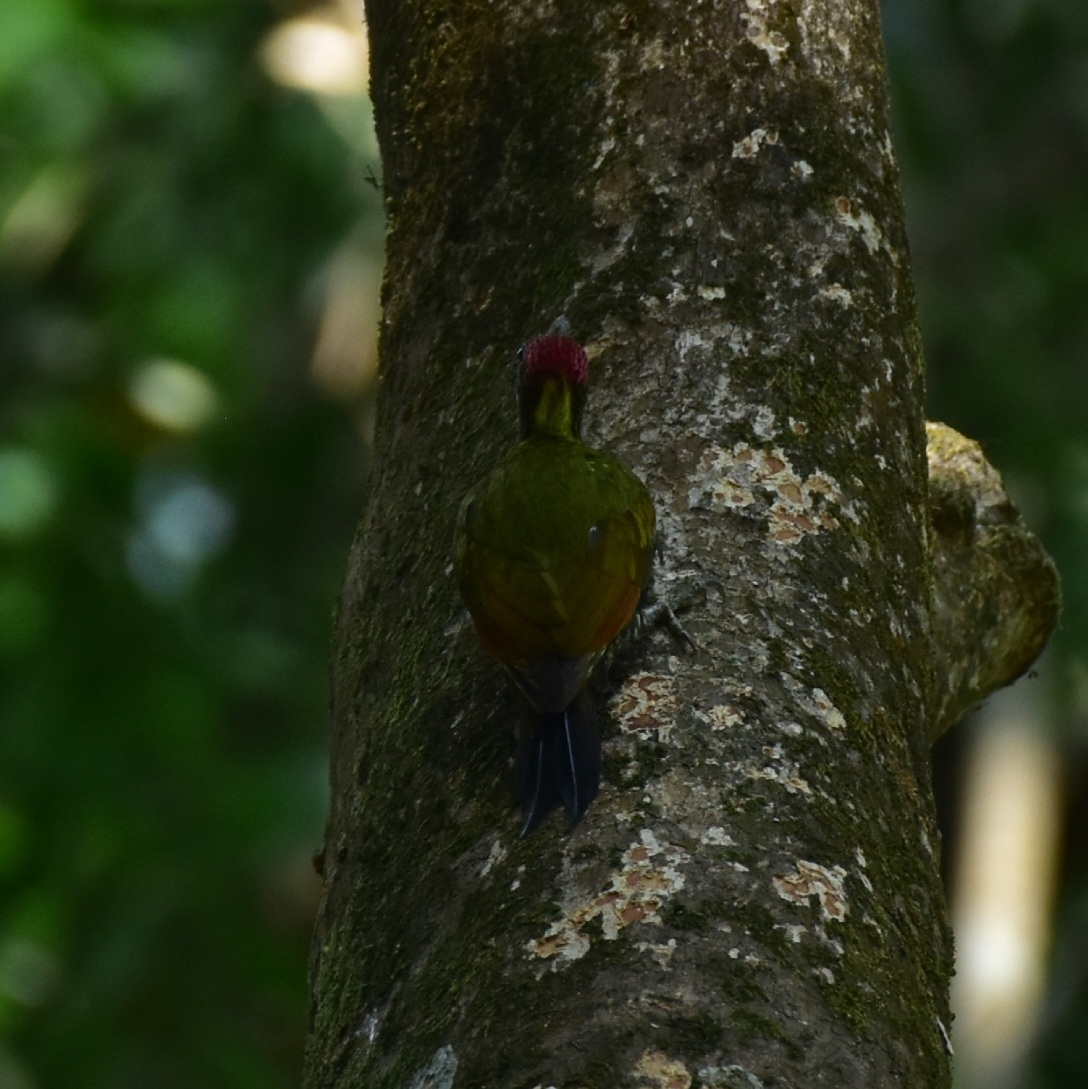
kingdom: Animalia
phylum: Chordata
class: Aves
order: Piciformes
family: Picidae
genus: Picus
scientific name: Picus chlorolophus
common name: Lesser yellownape
